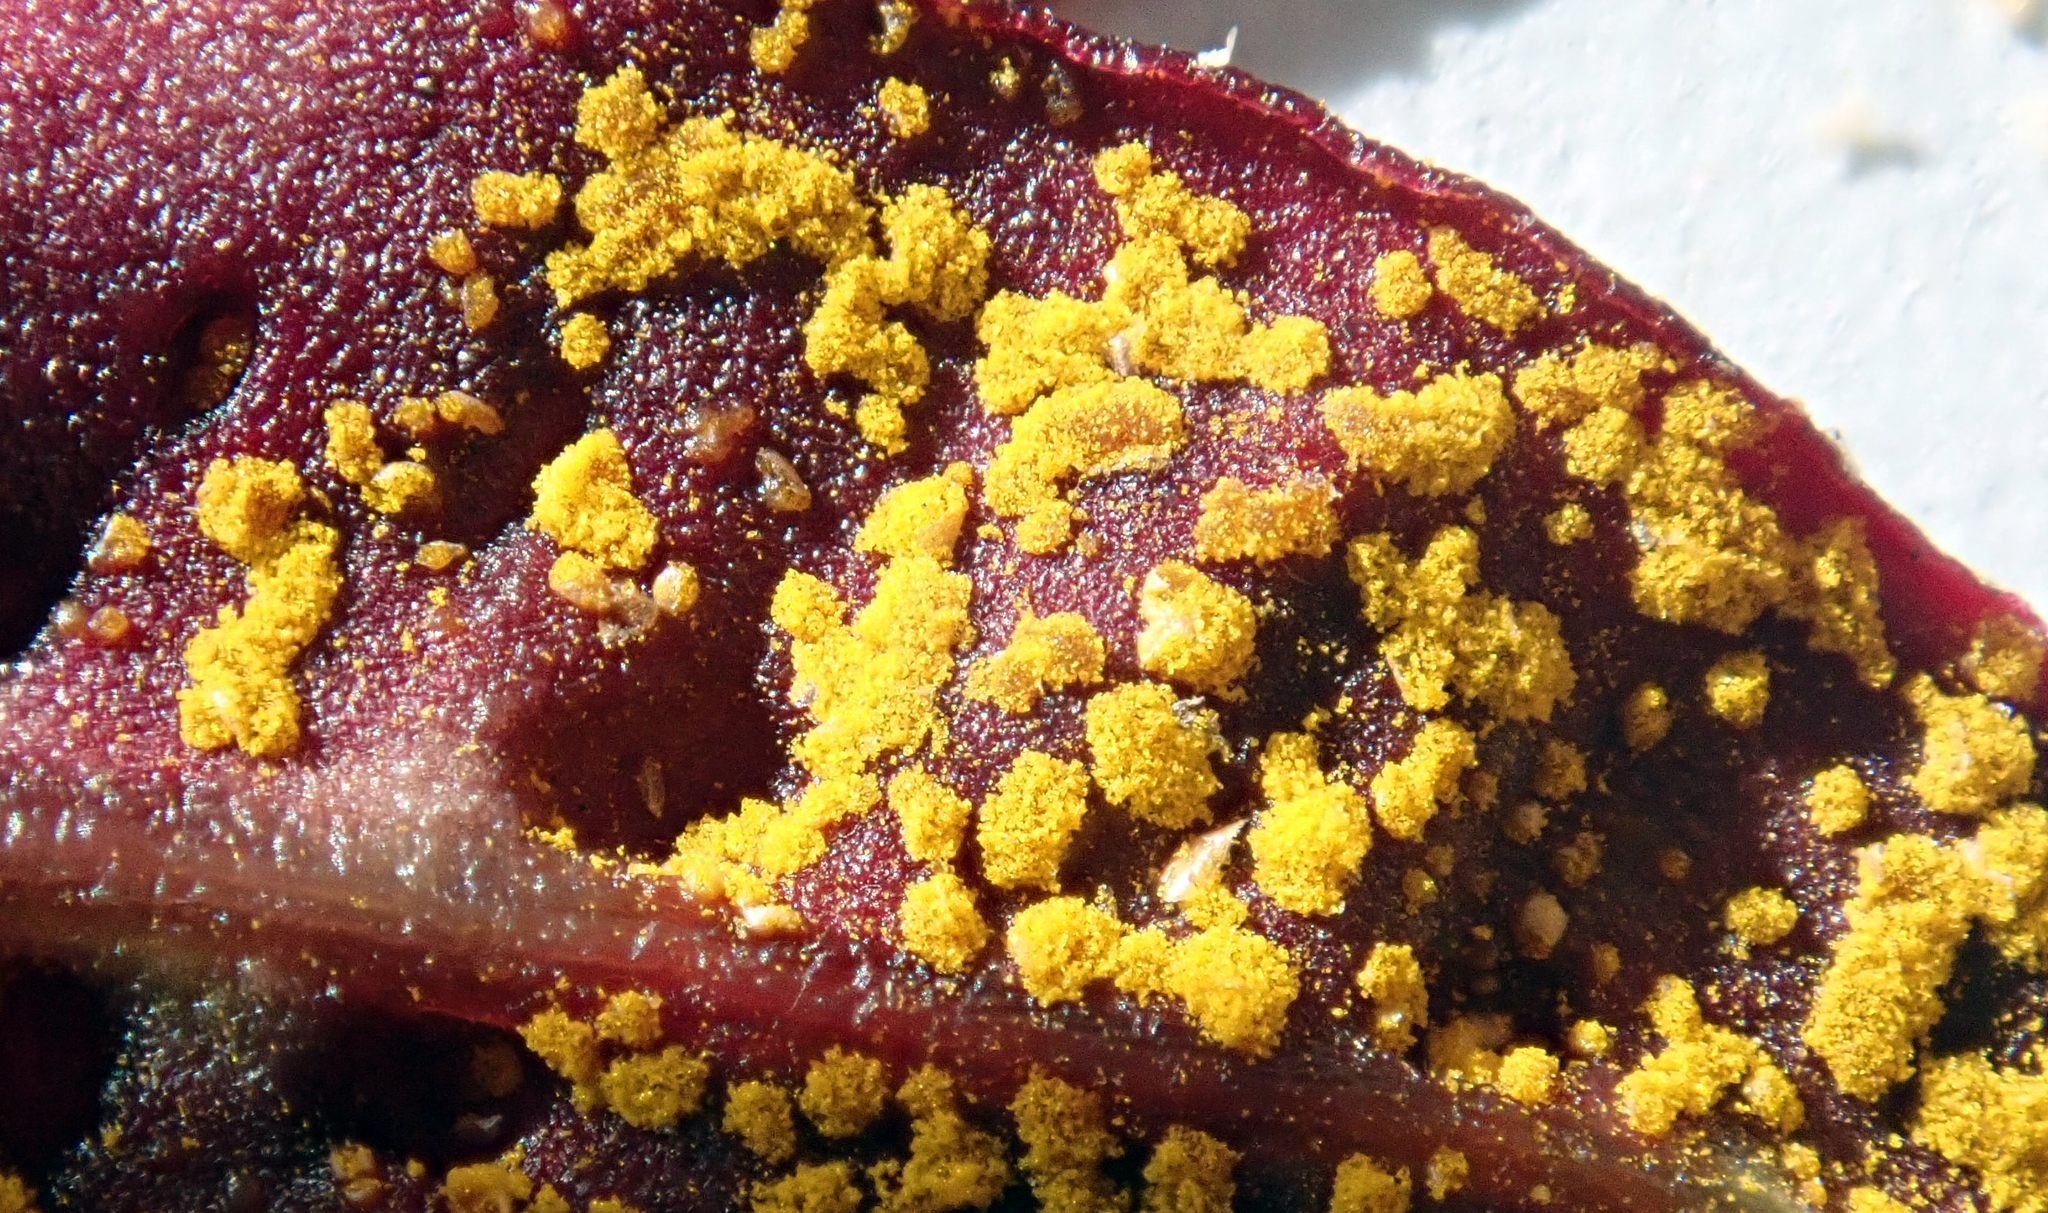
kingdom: Fungi
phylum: Basidiomycota
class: Pucciniomycetes
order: Pucciniales
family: Sphaerophragmiaceae
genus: Austropuccinia
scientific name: Austropuccinia psidii
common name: Myrtle rust
